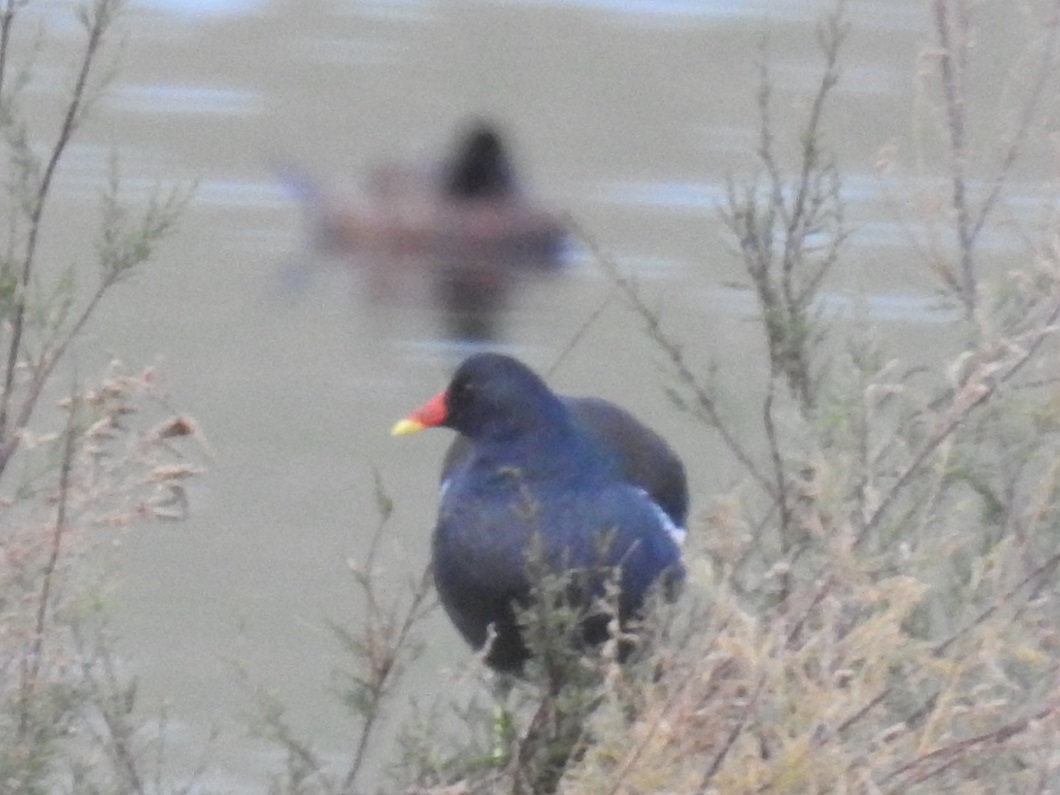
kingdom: Animalia
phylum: Chordata
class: Aves
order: Gruiformes
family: Rallidae
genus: Gallinula
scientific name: Gallinula chloropus
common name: Common moorhen
